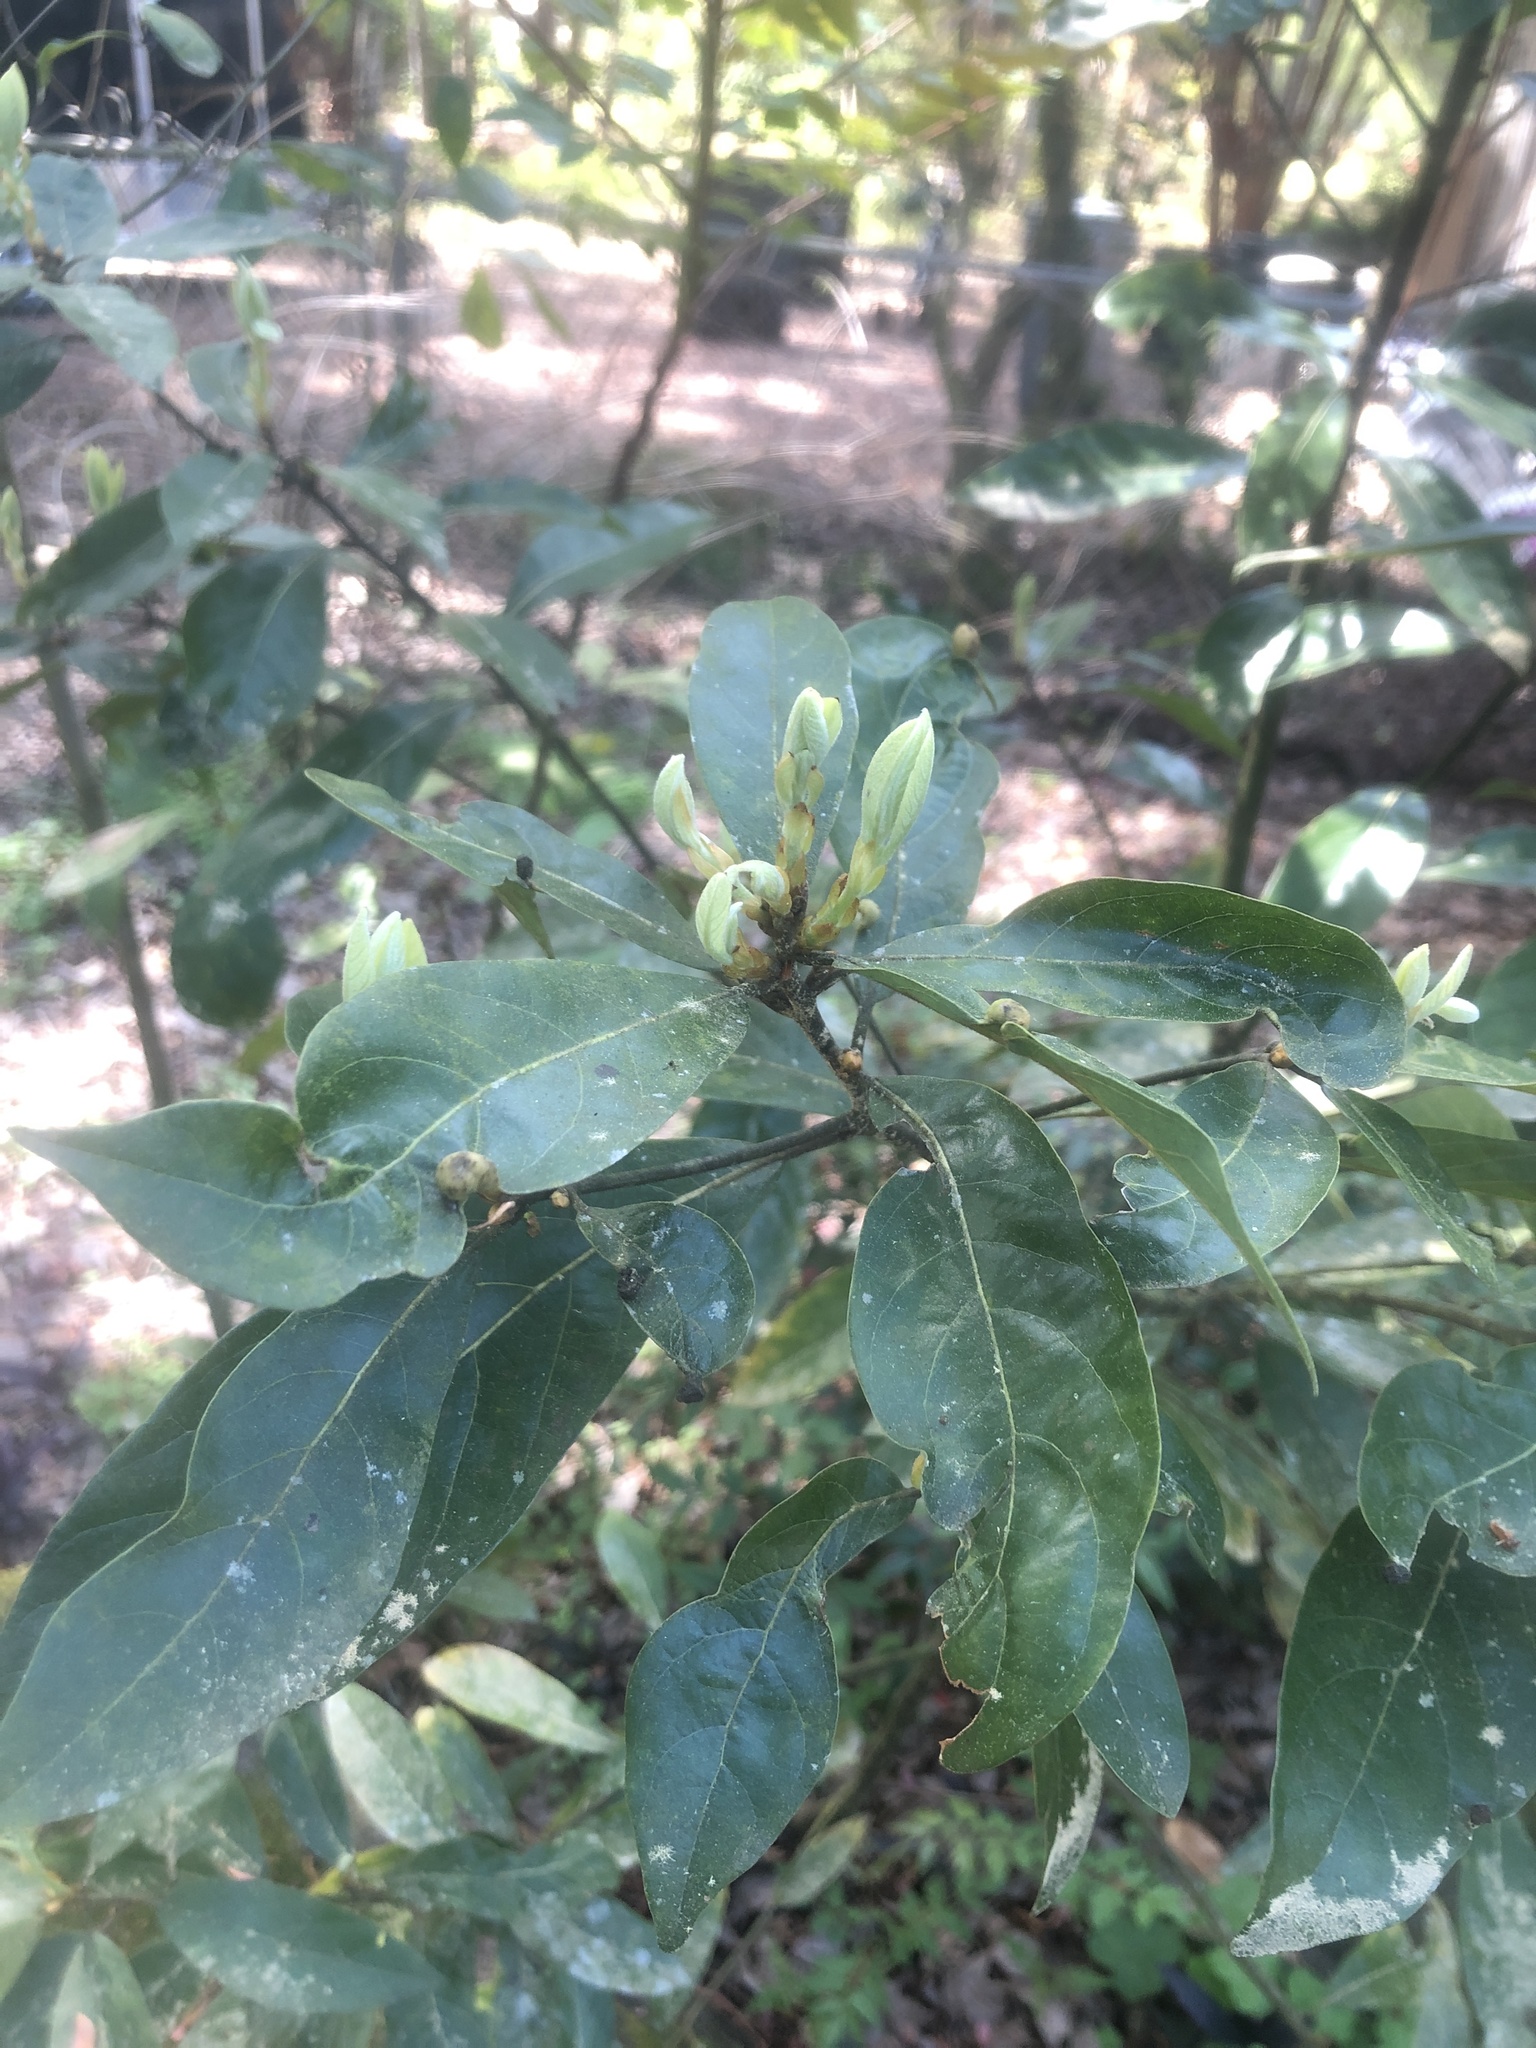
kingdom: Plantae
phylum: Tracheophyta
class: Magnoliopsida
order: Laurales
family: Lauraceae
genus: Persea
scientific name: Persea palustris
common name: Swampbay
